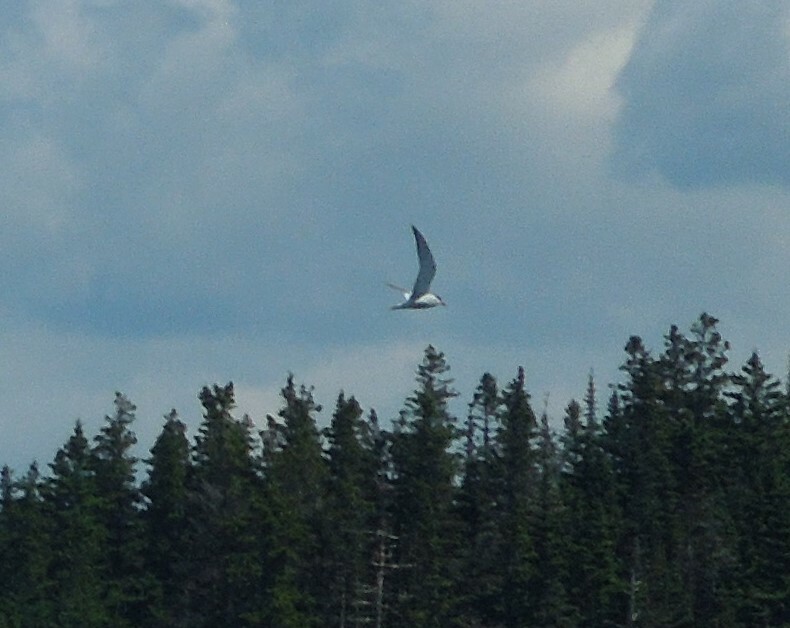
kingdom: Animalia
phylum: Chordata
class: Aves
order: Charadriiformes
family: Laridae
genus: Sterna
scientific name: Sterna hirundo
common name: Common tern
